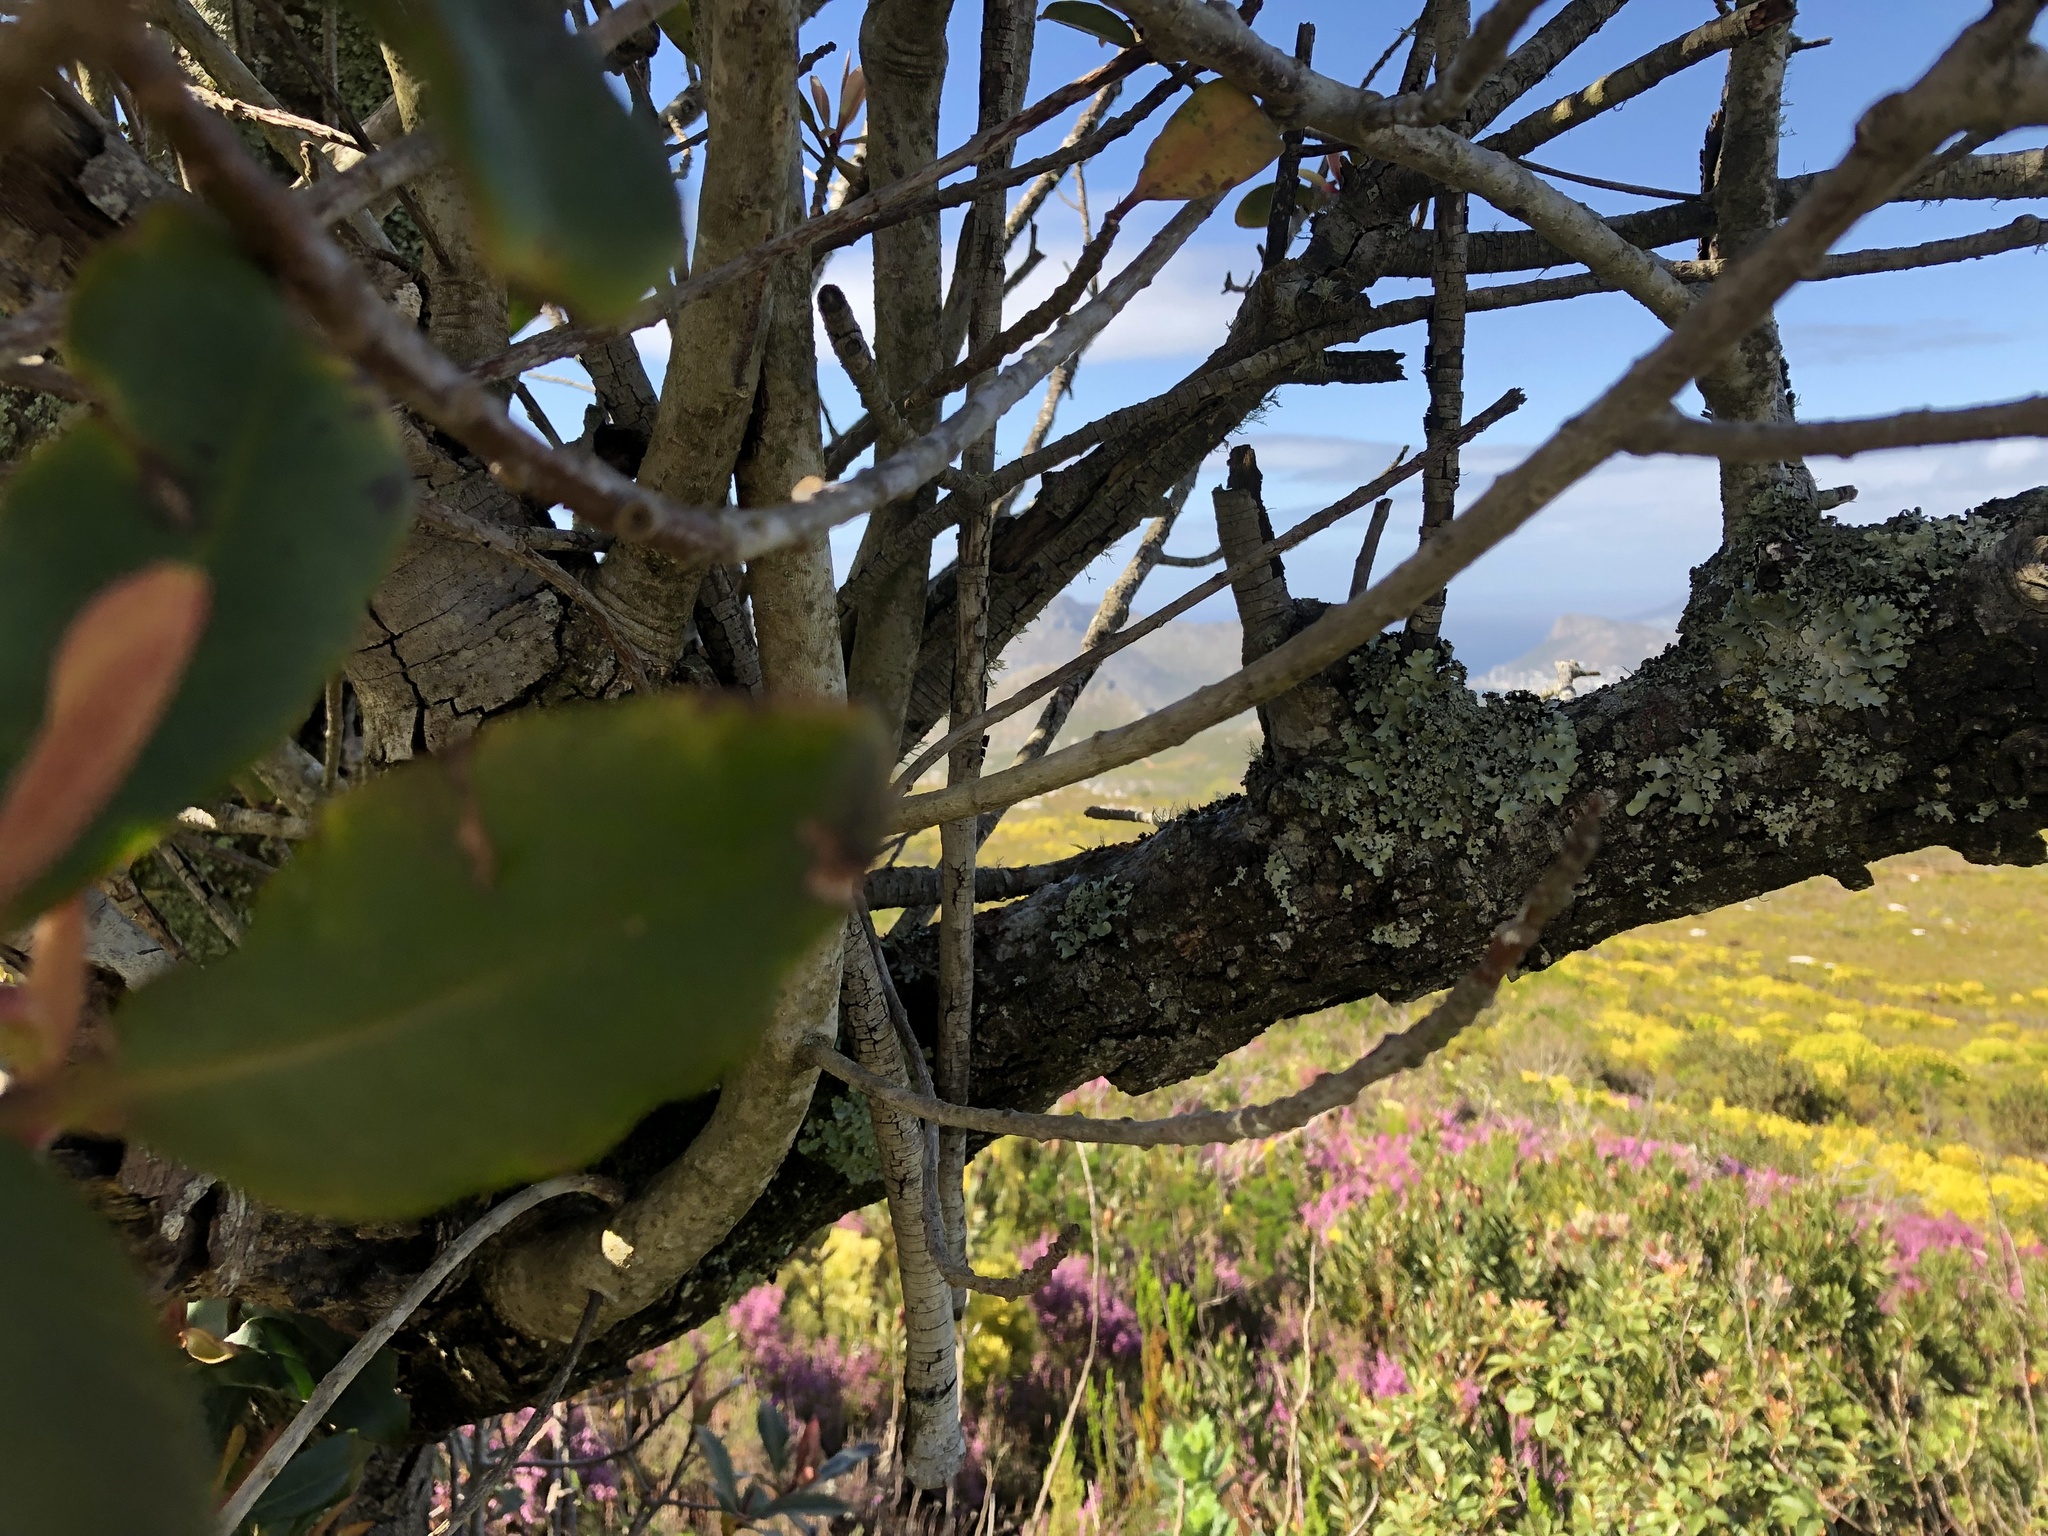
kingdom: Plantae
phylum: Tracheophyta
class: Magnoliopsida
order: Ericales
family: Primulaceae
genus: Myrsine
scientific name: Myrsine melanophloeos
